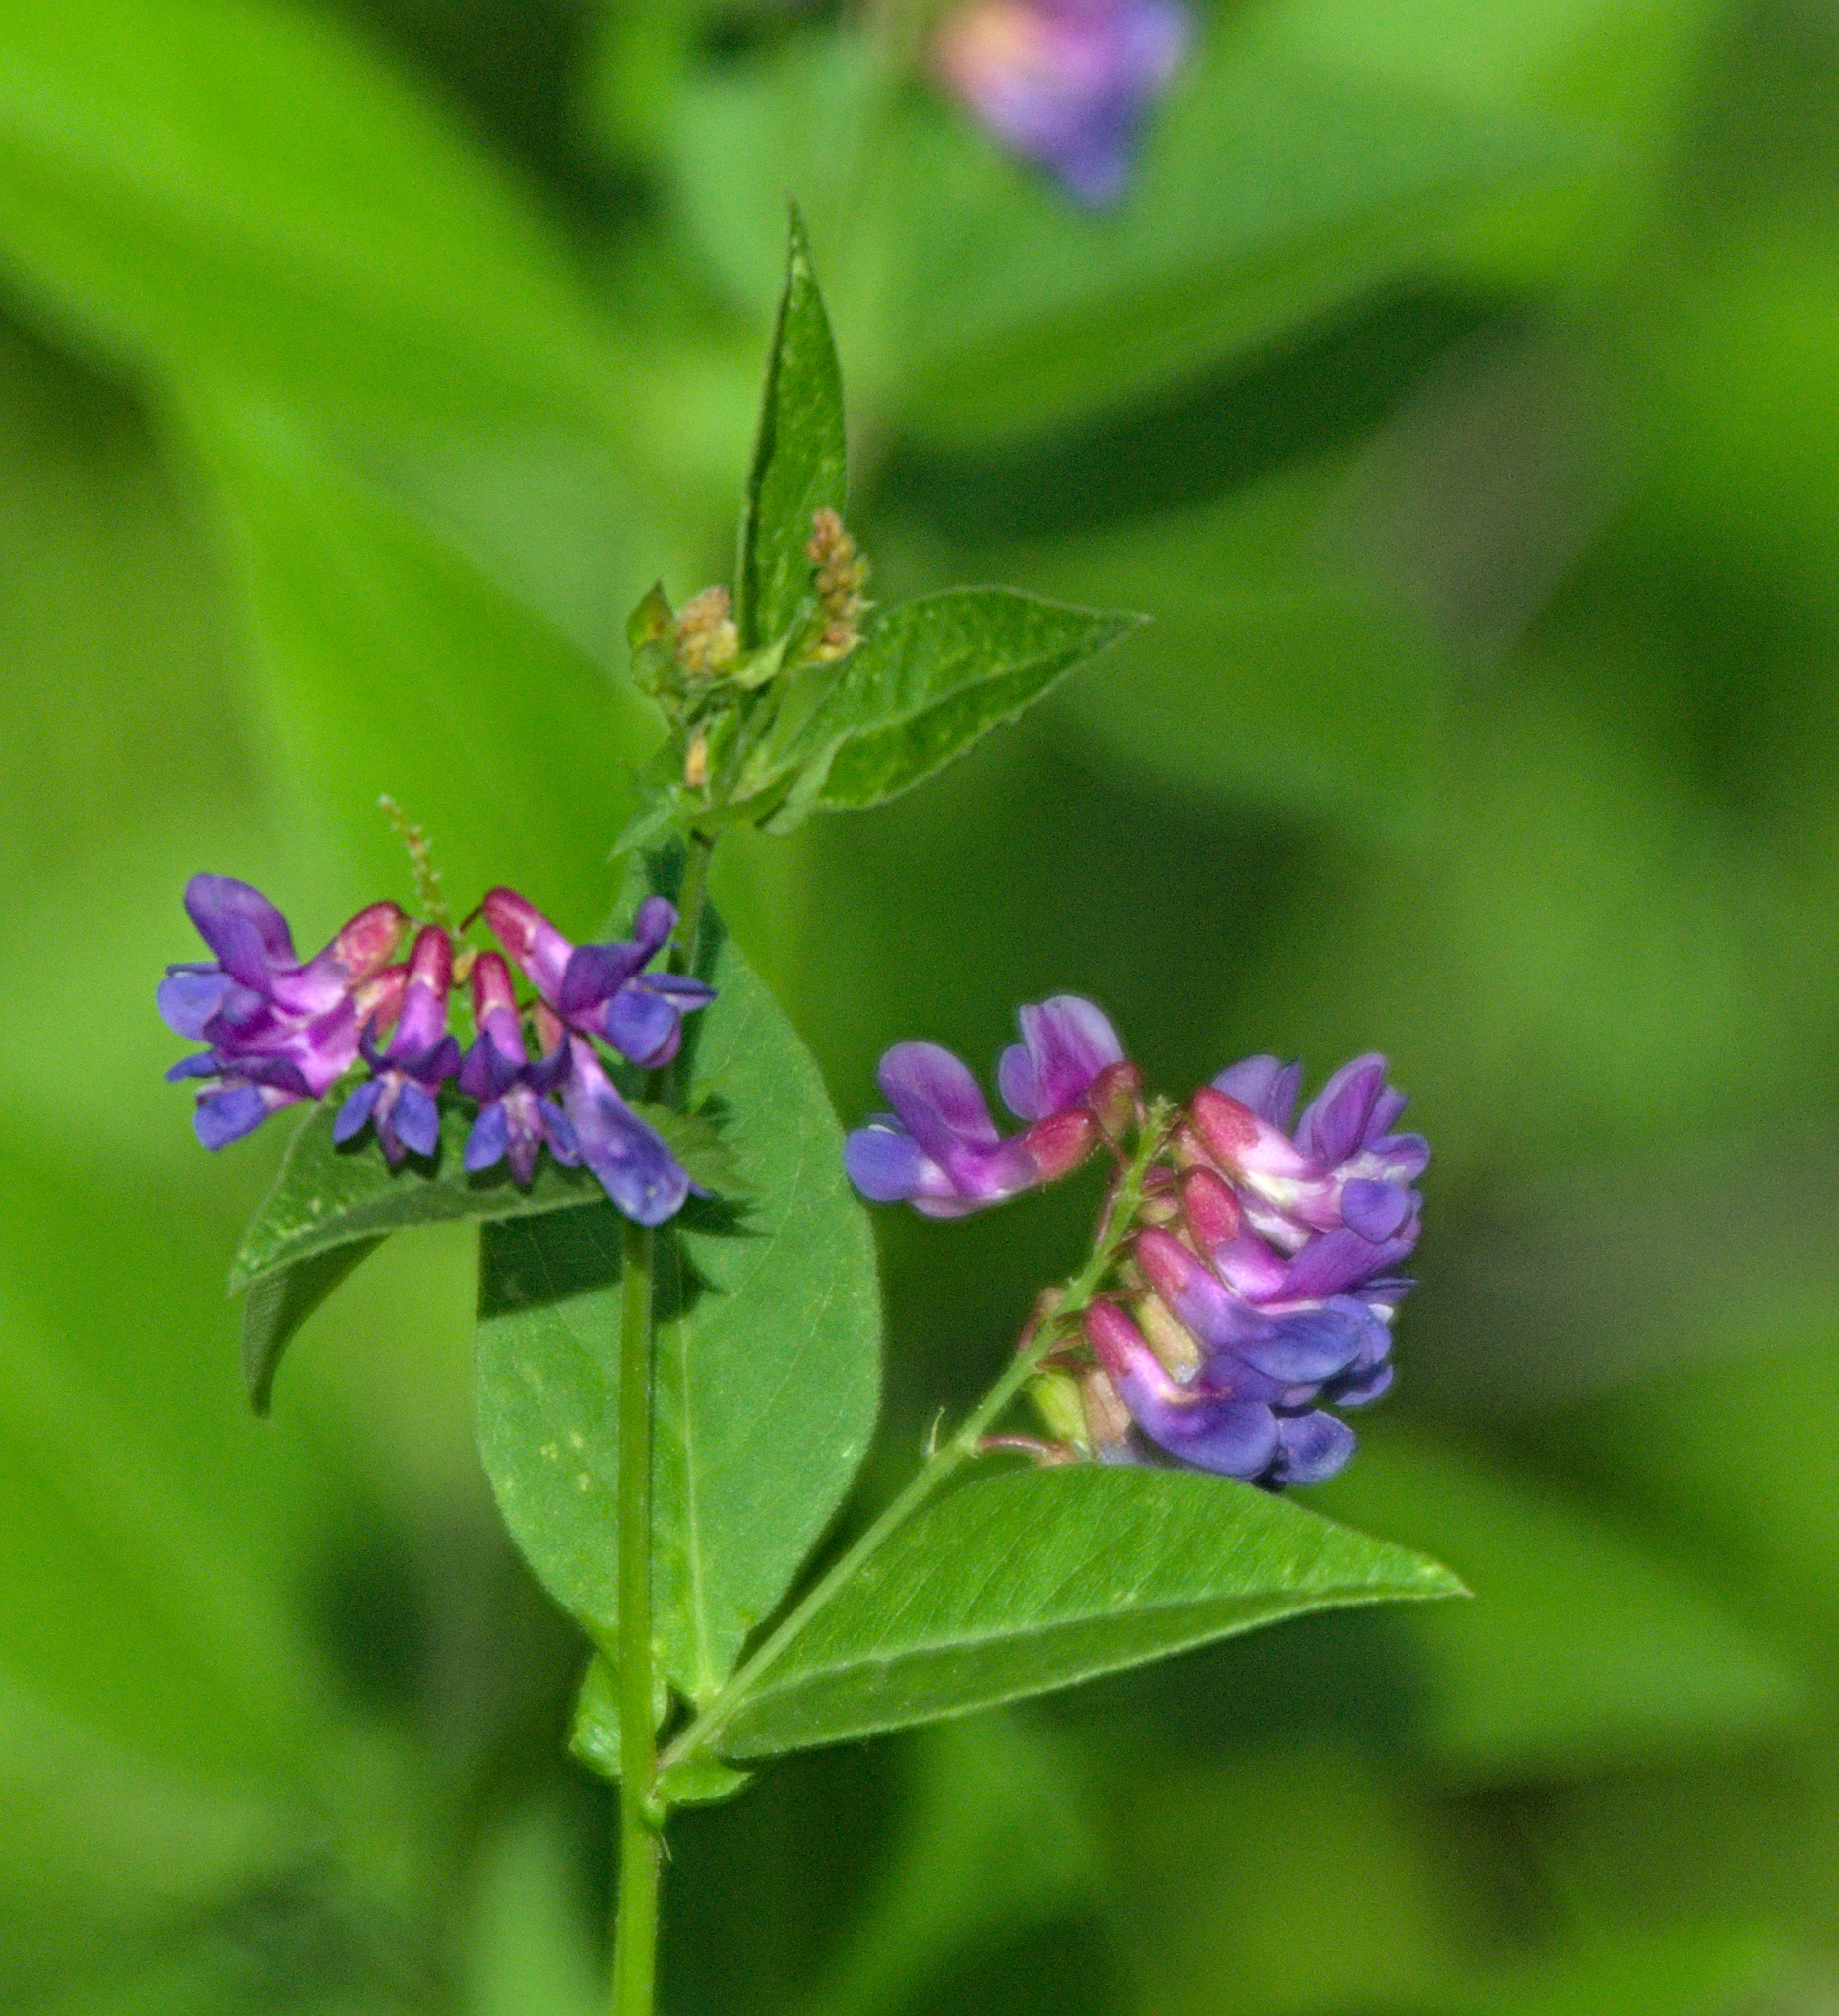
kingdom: Plantae
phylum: Tracheophyta
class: Magnoliopsida
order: Fabales
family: Fabaceae
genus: Vicia
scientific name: Vicia unijuga
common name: Two-leaf vetch
